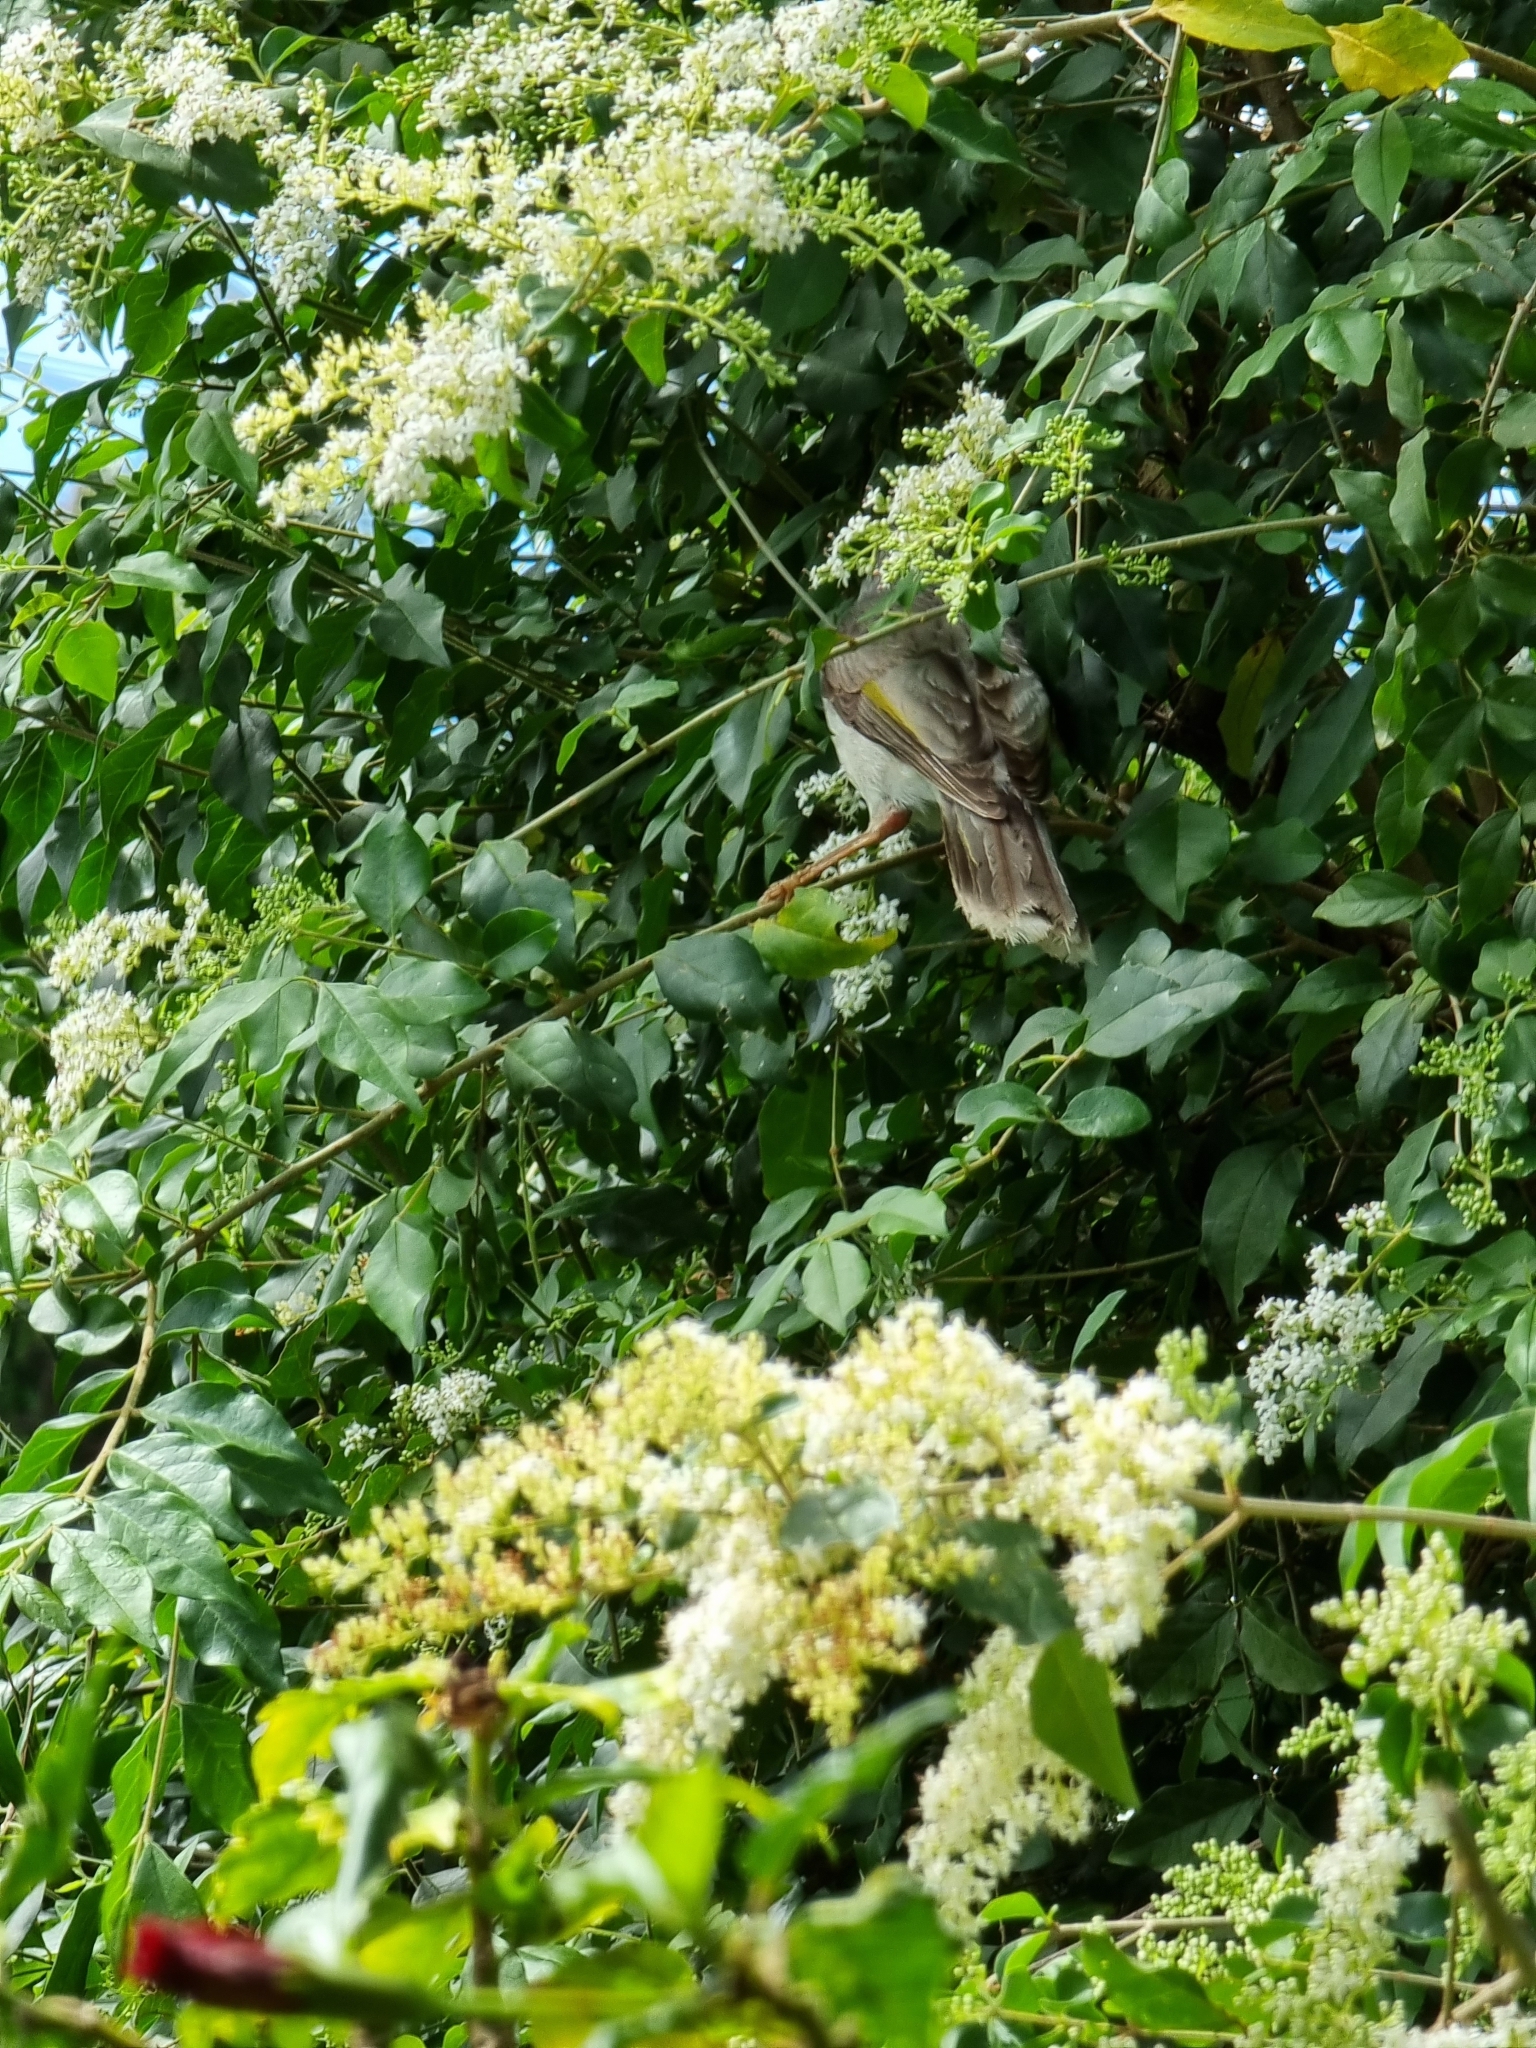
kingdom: Animalia
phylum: Chordata
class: Aves
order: Passeriformes
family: Meliphagidae
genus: Manorina
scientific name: Manorina melanocephala
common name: Noisy miner
